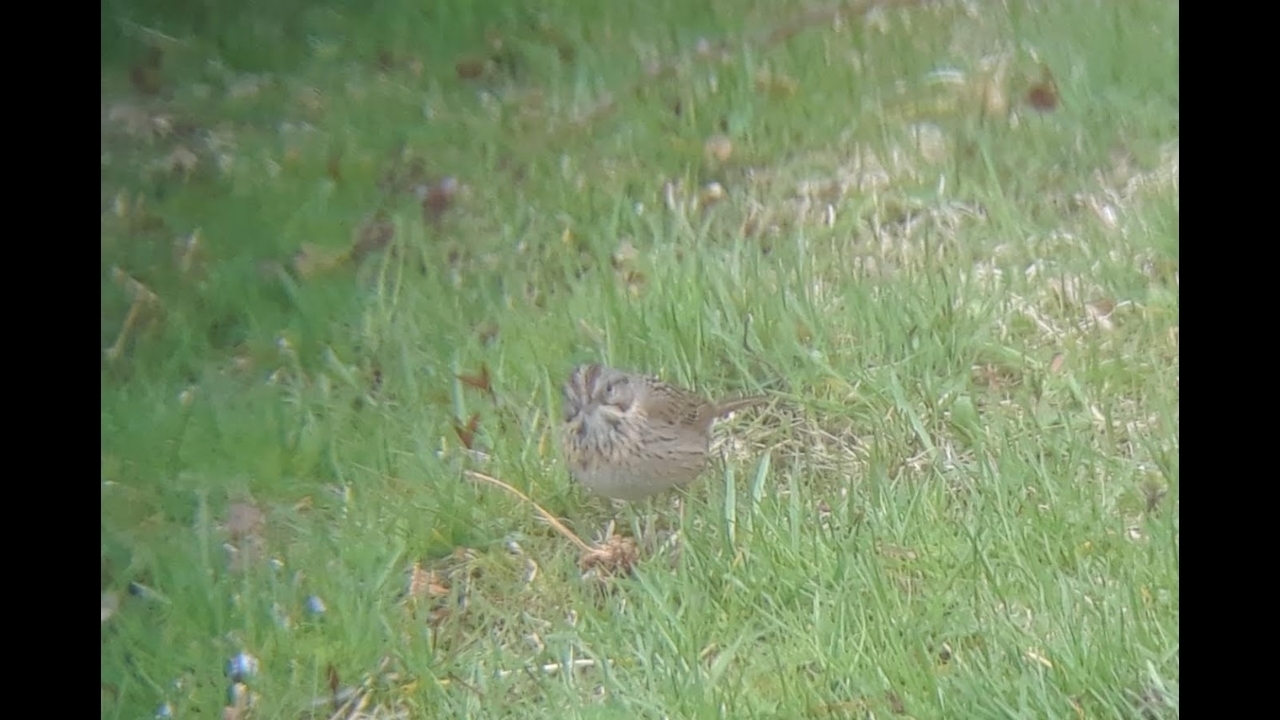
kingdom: Animalia
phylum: Chordata
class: Aves
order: Passeriformes
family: Passerellidae
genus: Melospiza
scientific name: Melospiza lincolnii
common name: Lincoln's sparrow
